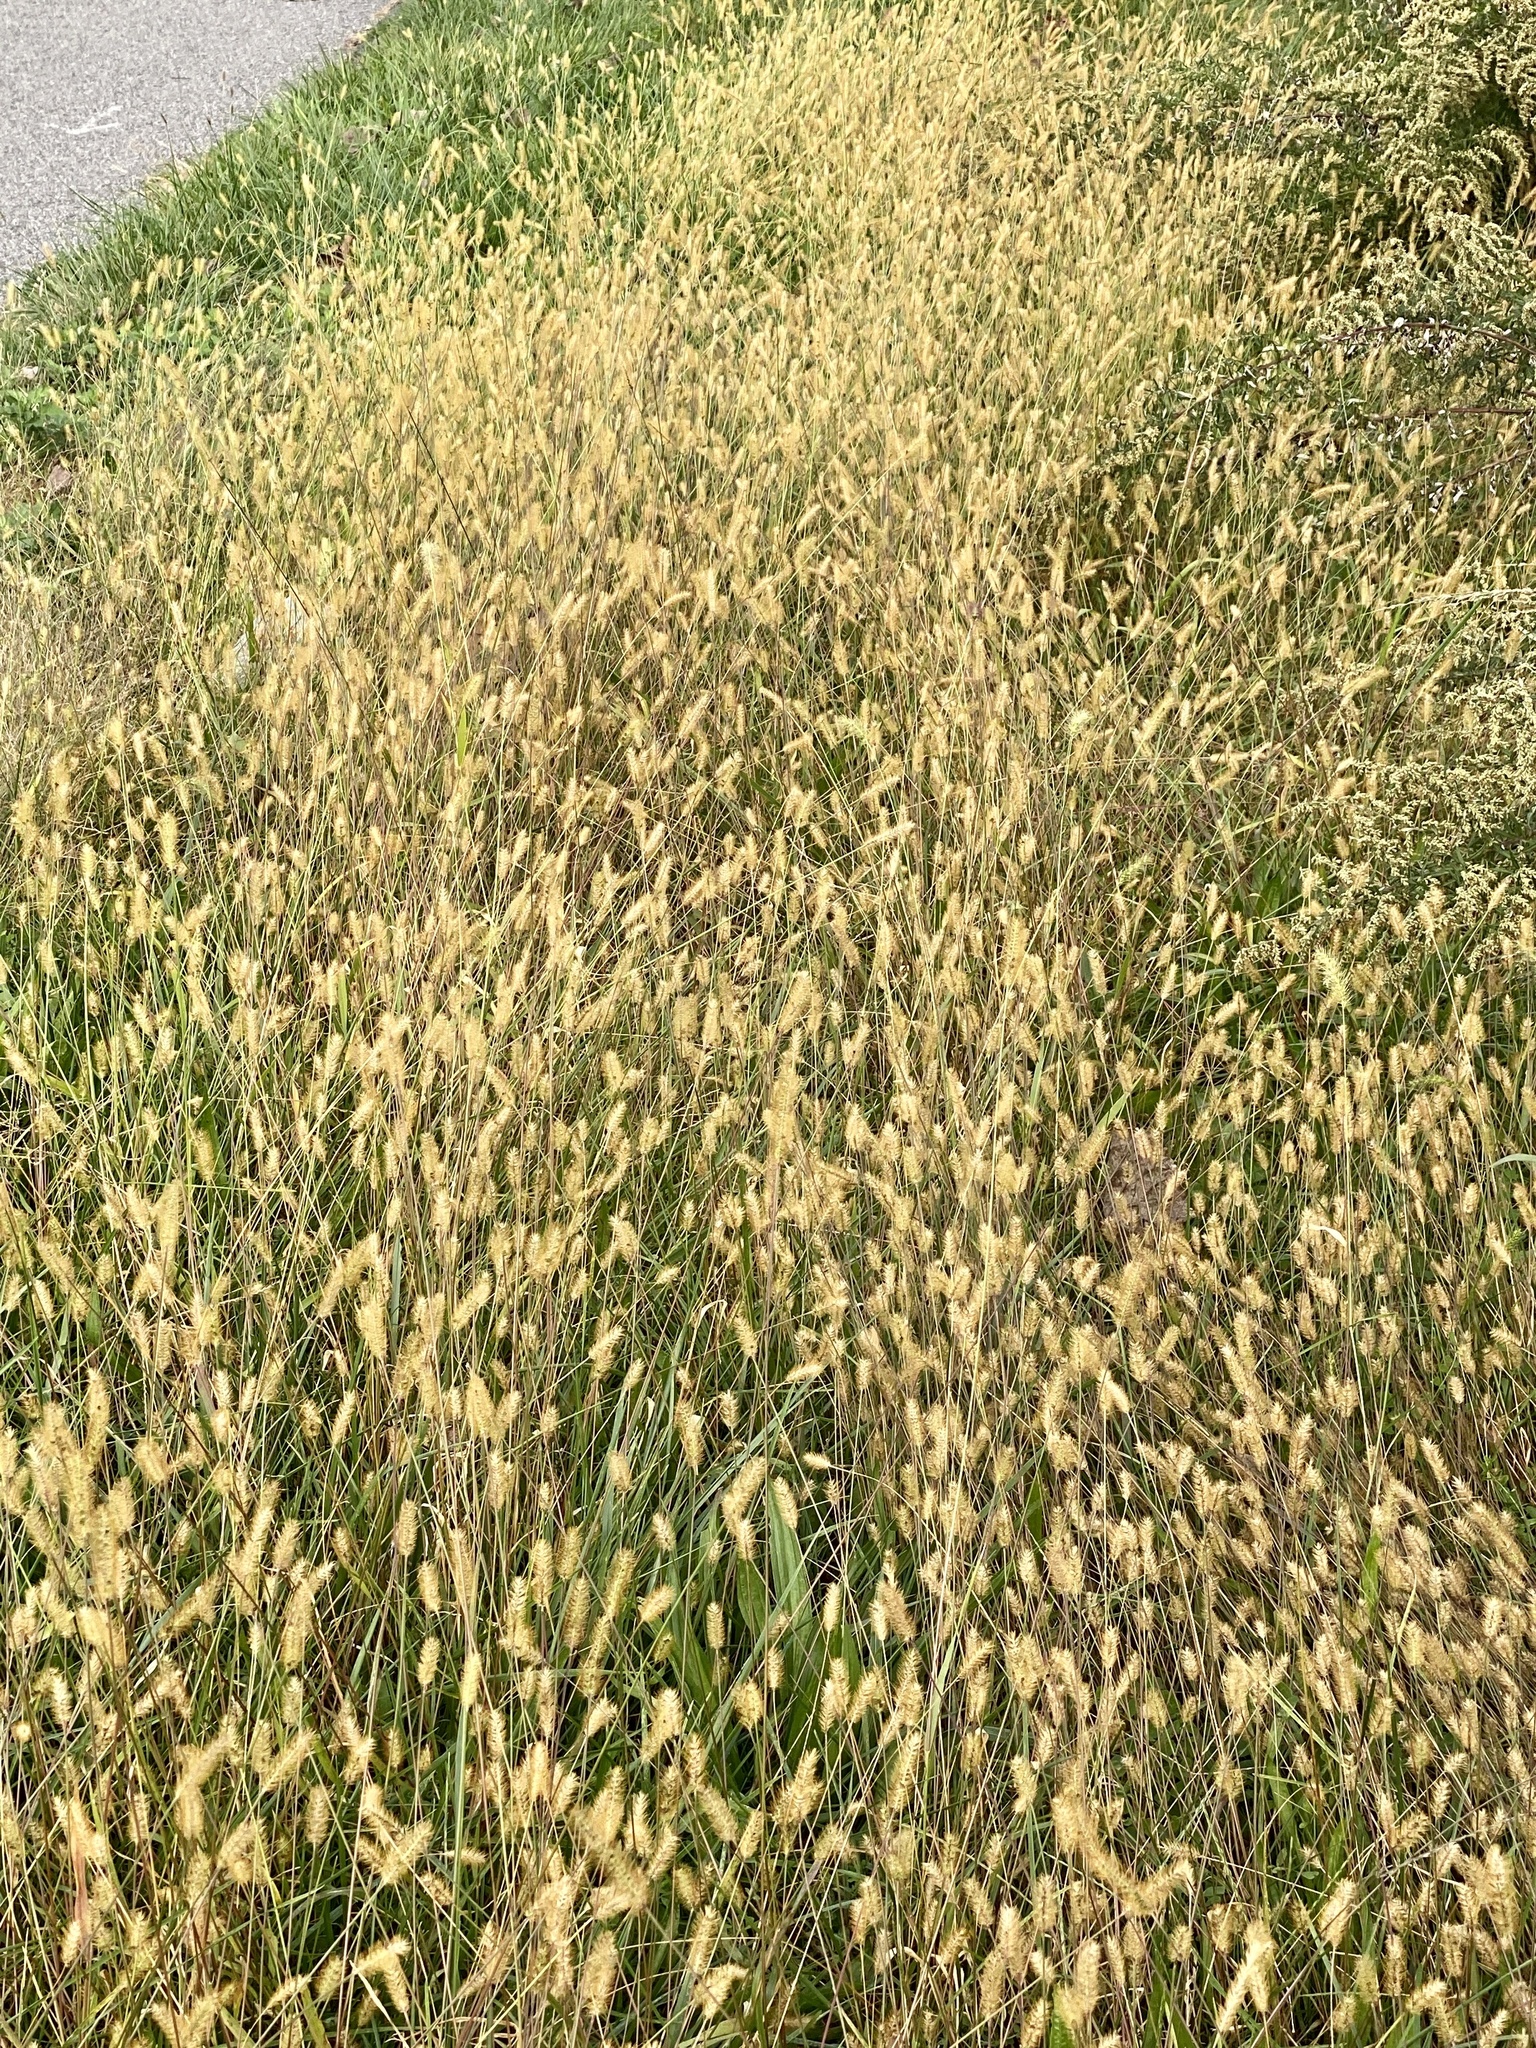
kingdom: Plantae
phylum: Tracheophyta
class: Liliopsida
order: Poales
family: Poaceae
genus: Setaria
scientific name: Setaria pumila
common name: Yellow bristle-grass
